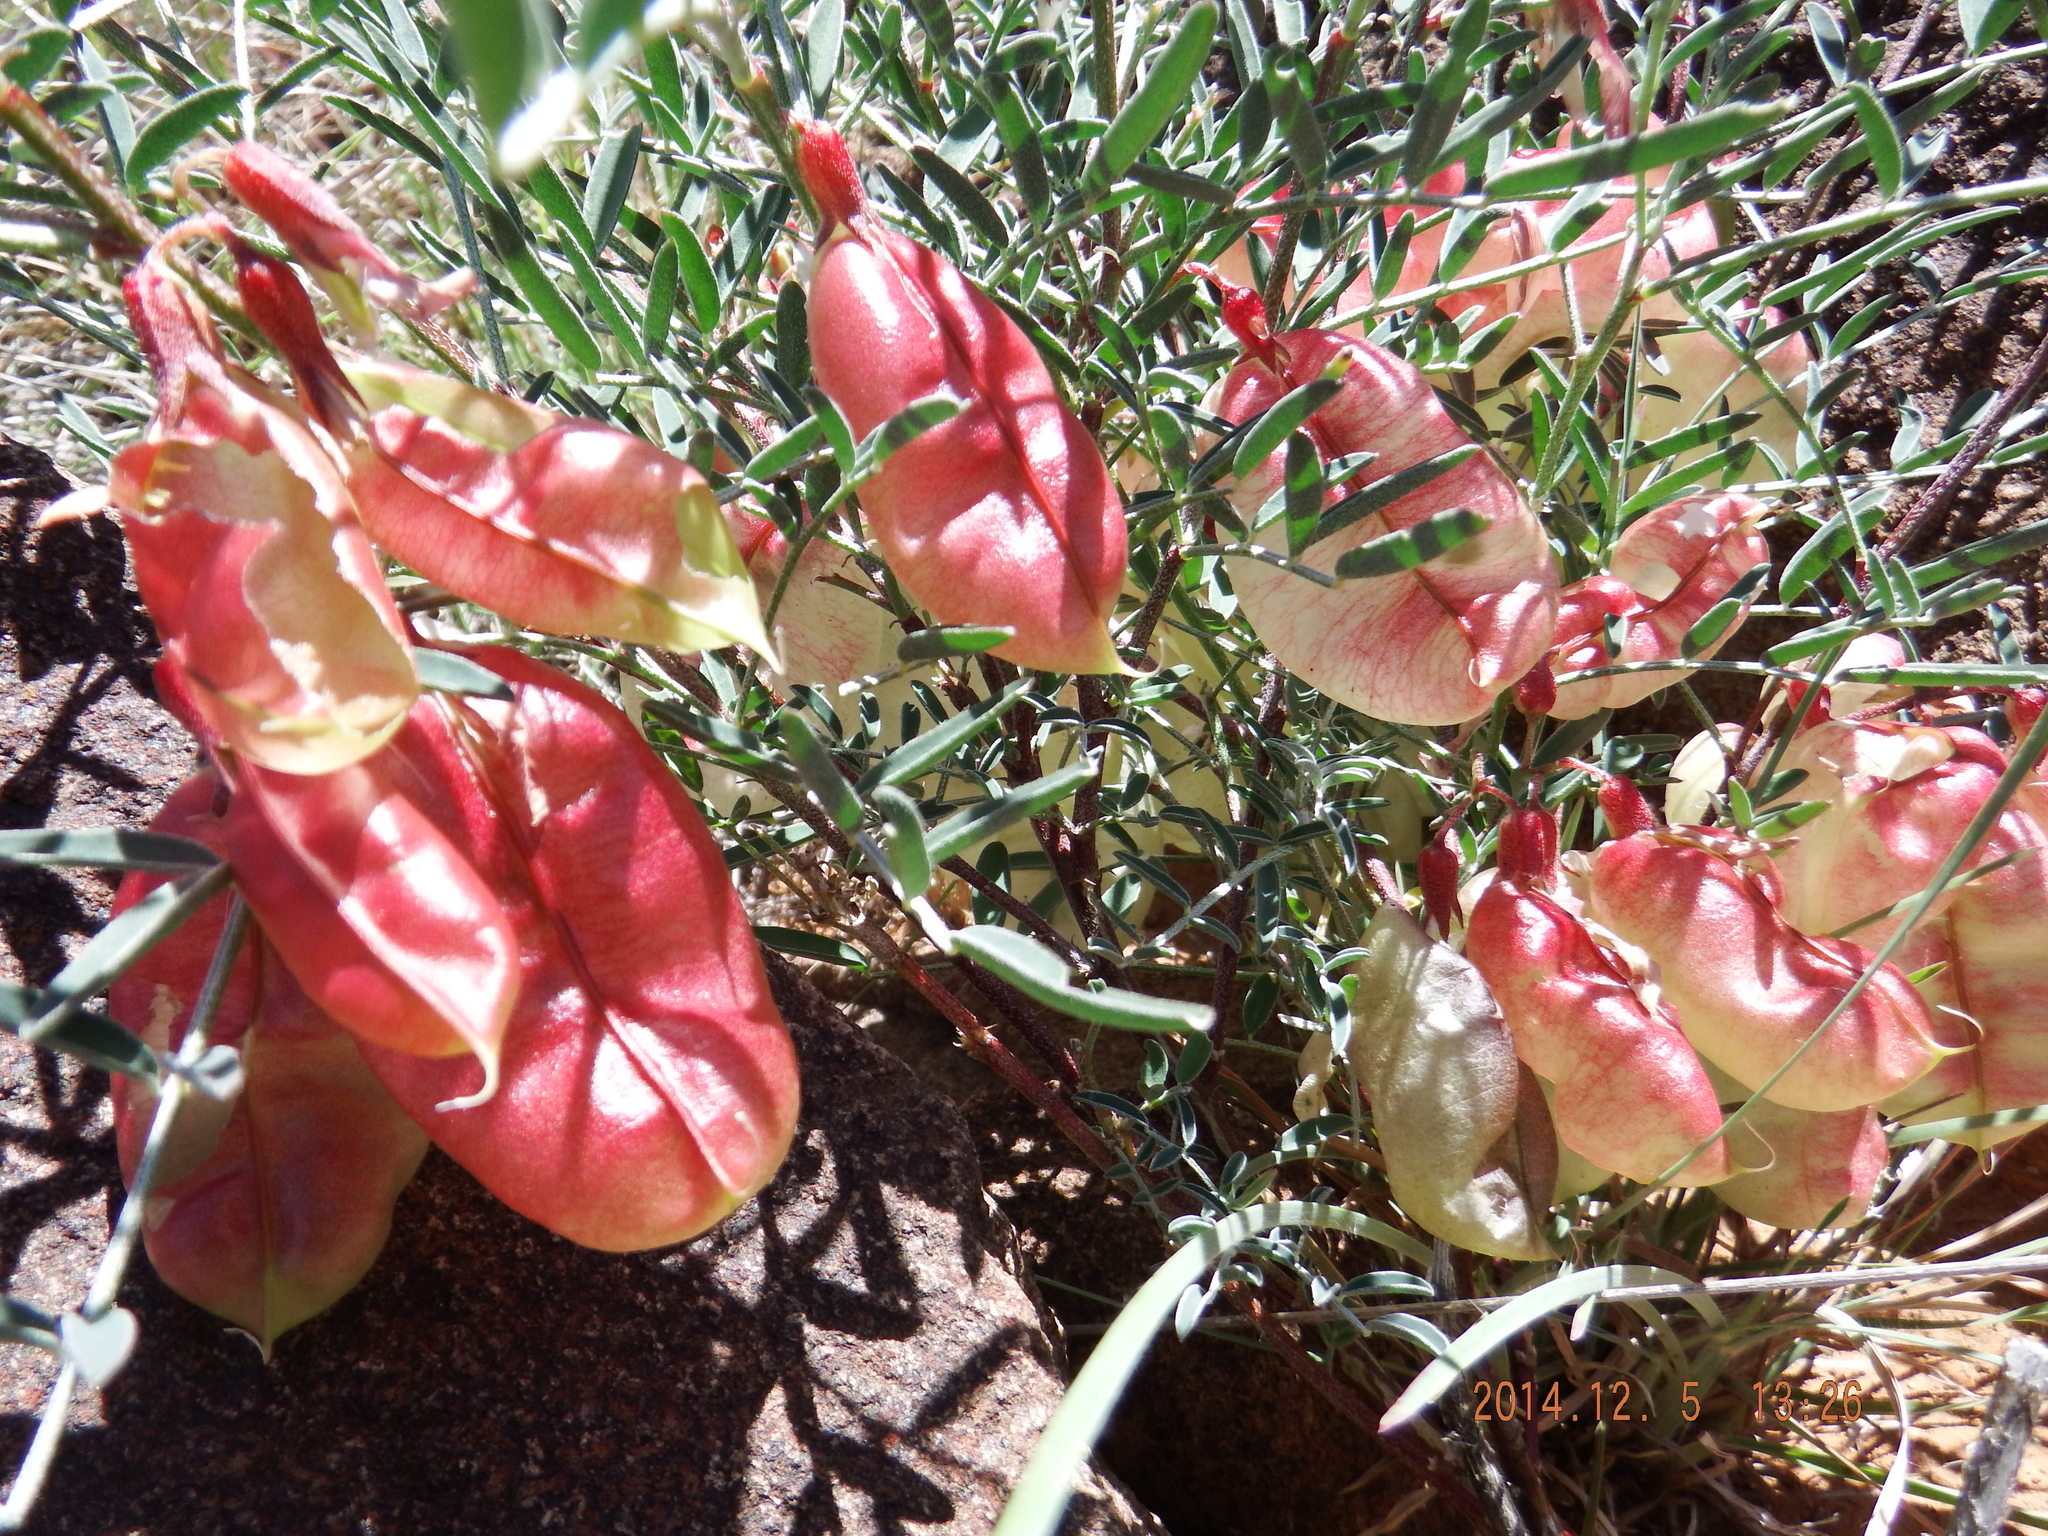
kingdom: Plantae
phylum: Tracheophyta
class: Magnoliopsida
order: Fabales
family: Fabaceae
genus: Lessertia
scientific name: Lessertia frutescens
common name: Balloon-pea
